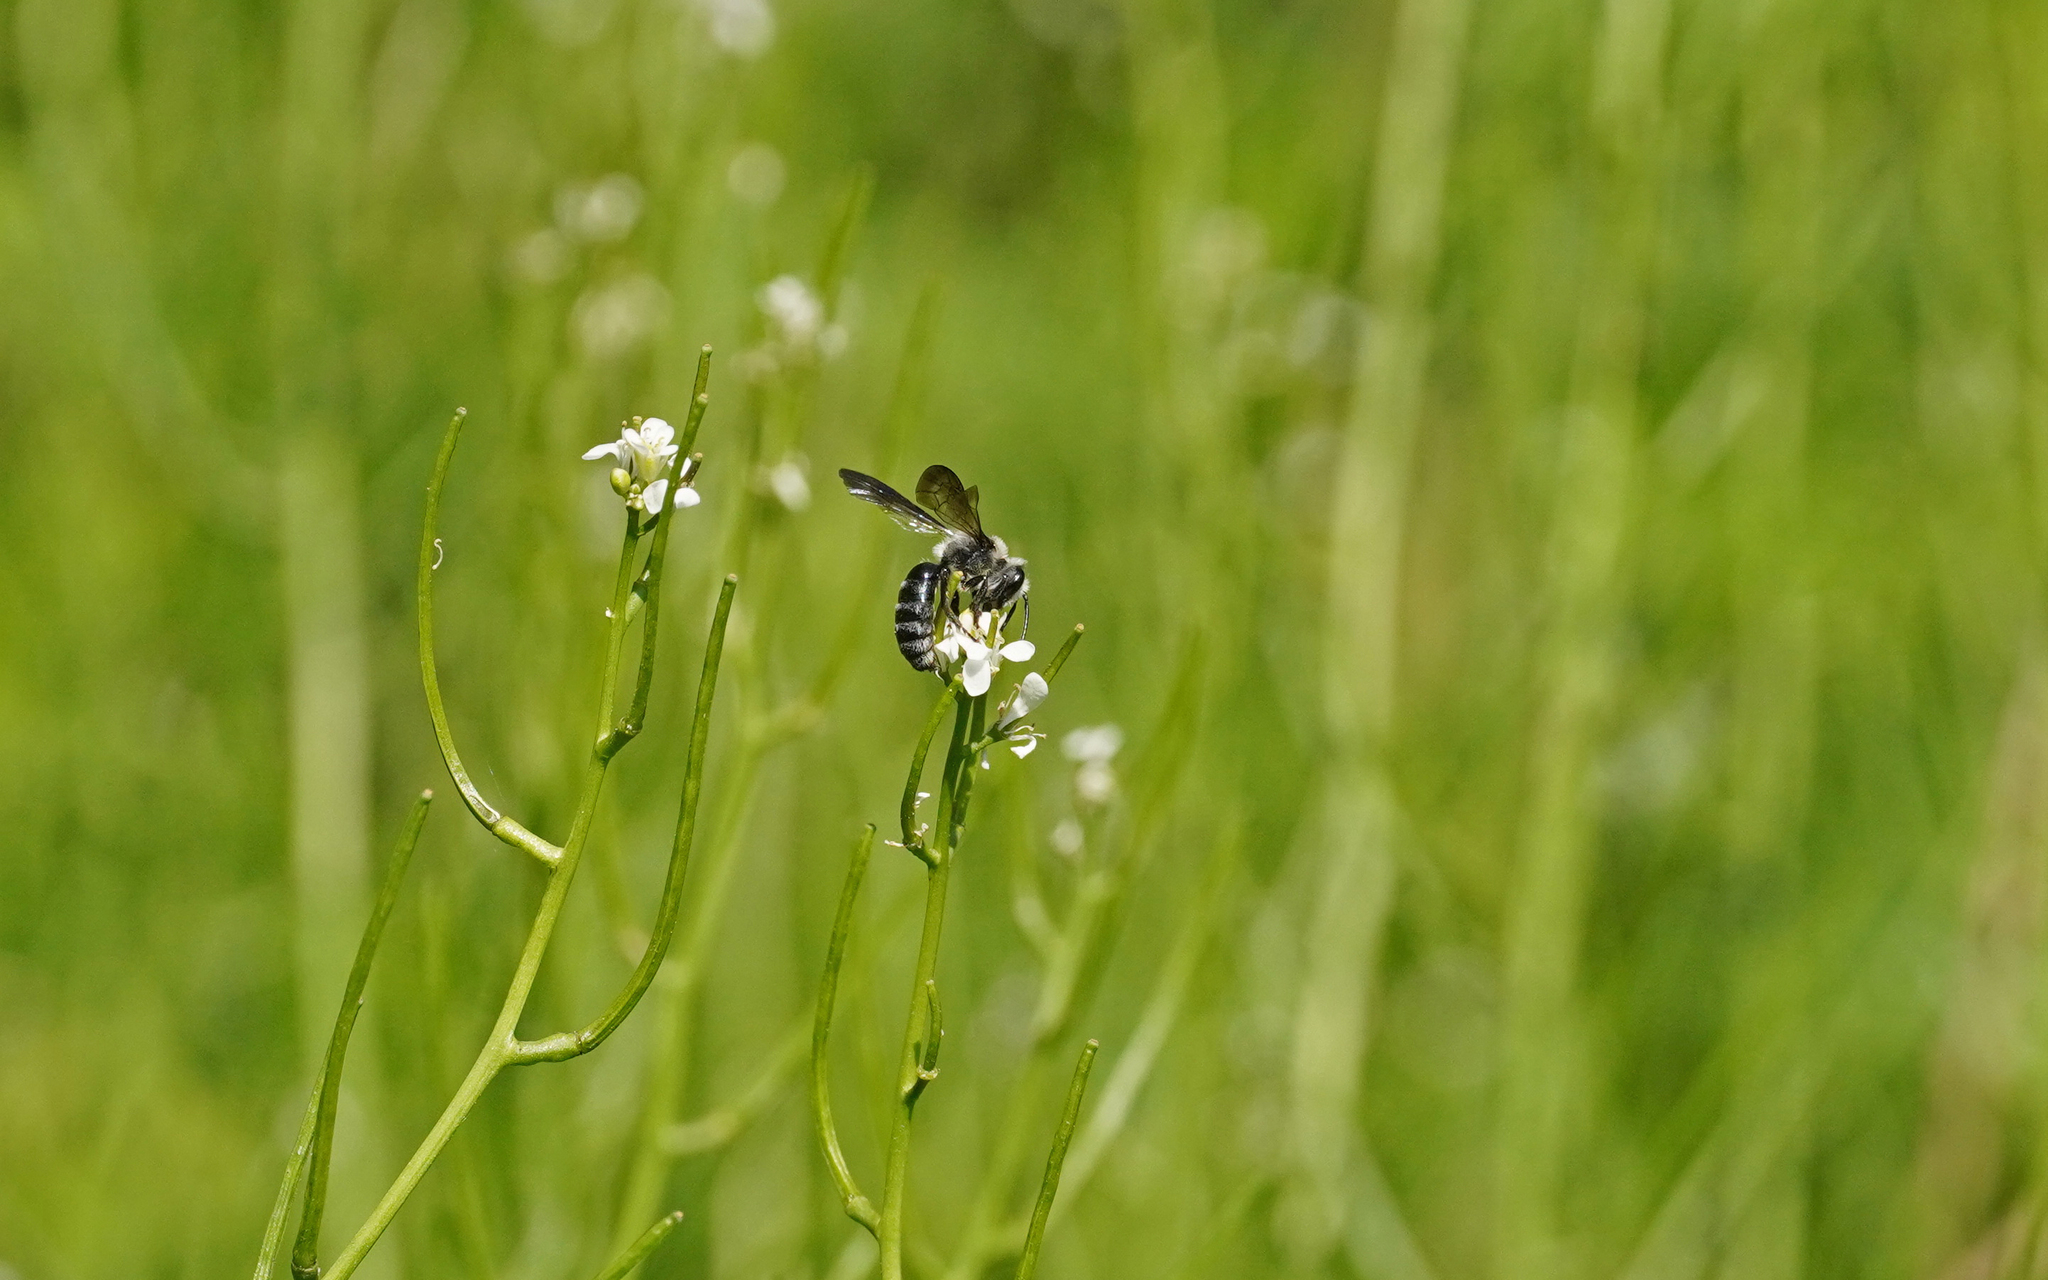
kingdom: Animalia
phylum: Arthropoda
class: Insecta
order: Hymenoptera
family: Andrenidae
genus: Andrena
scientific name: Andrena agilissima
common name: Violet-winged mining bee
